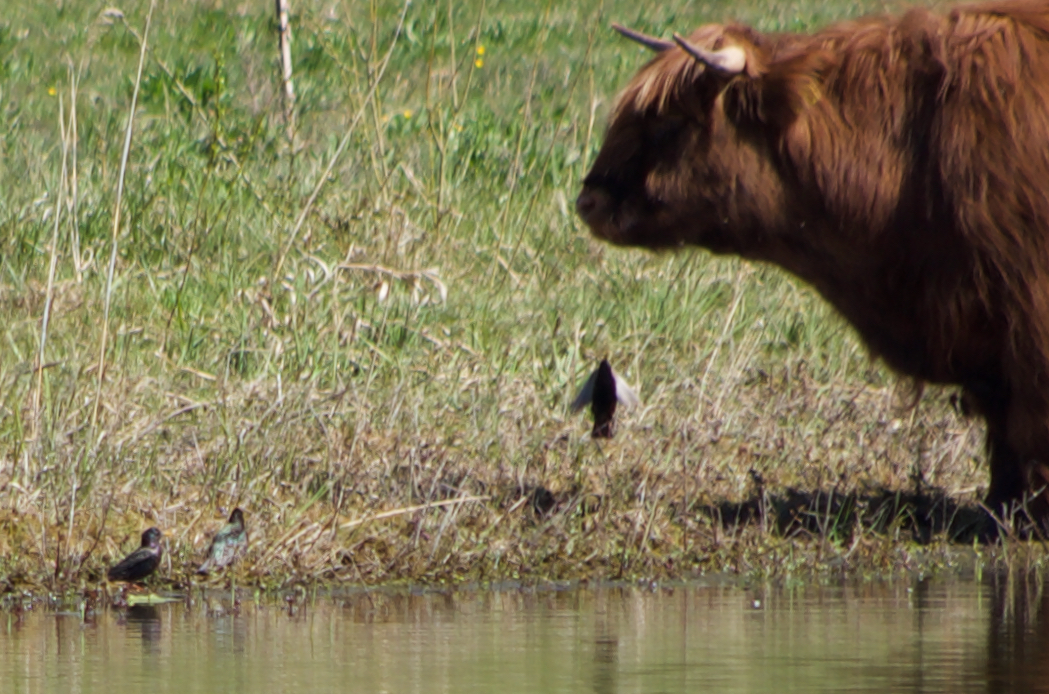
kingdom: Animalia
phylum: Chordata
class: Aves
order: Passeriformes
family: Sturnidae
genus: Sturnus
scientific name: Sturnus vulgaris
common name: Common starling
